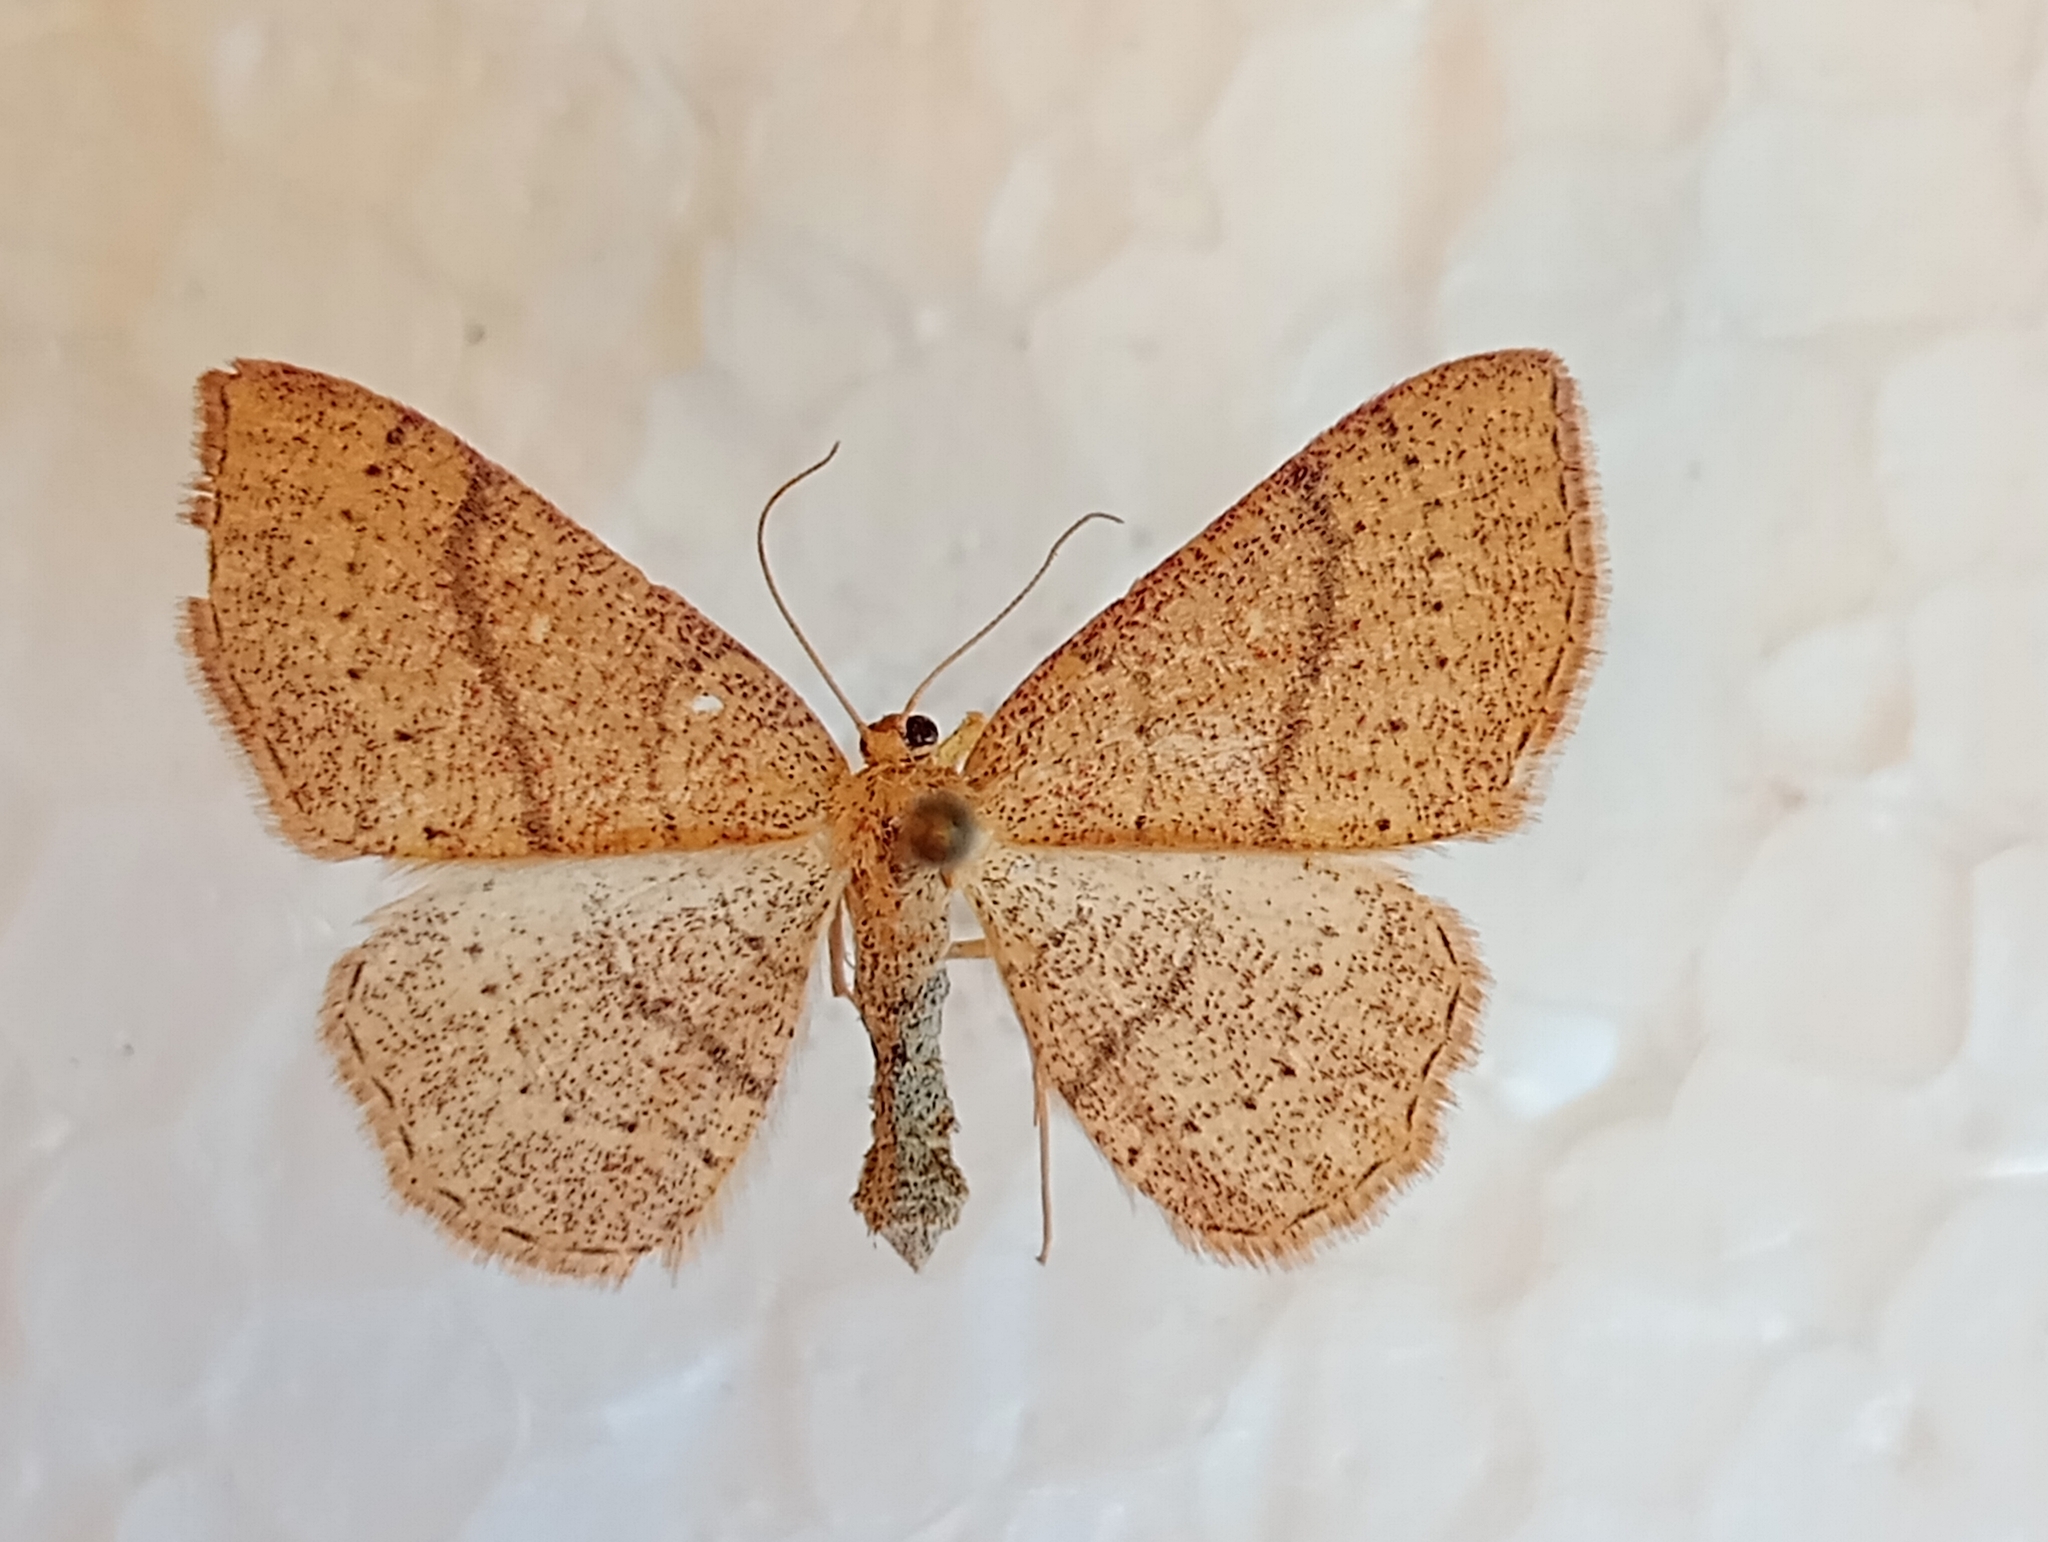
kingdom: Animalia
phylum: Arthropoda
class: Insecta
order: Lepidoptera
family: Geometridae
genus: Cyclophora
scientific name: Cyclophora ruficiliaria
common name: Jersey mocha
